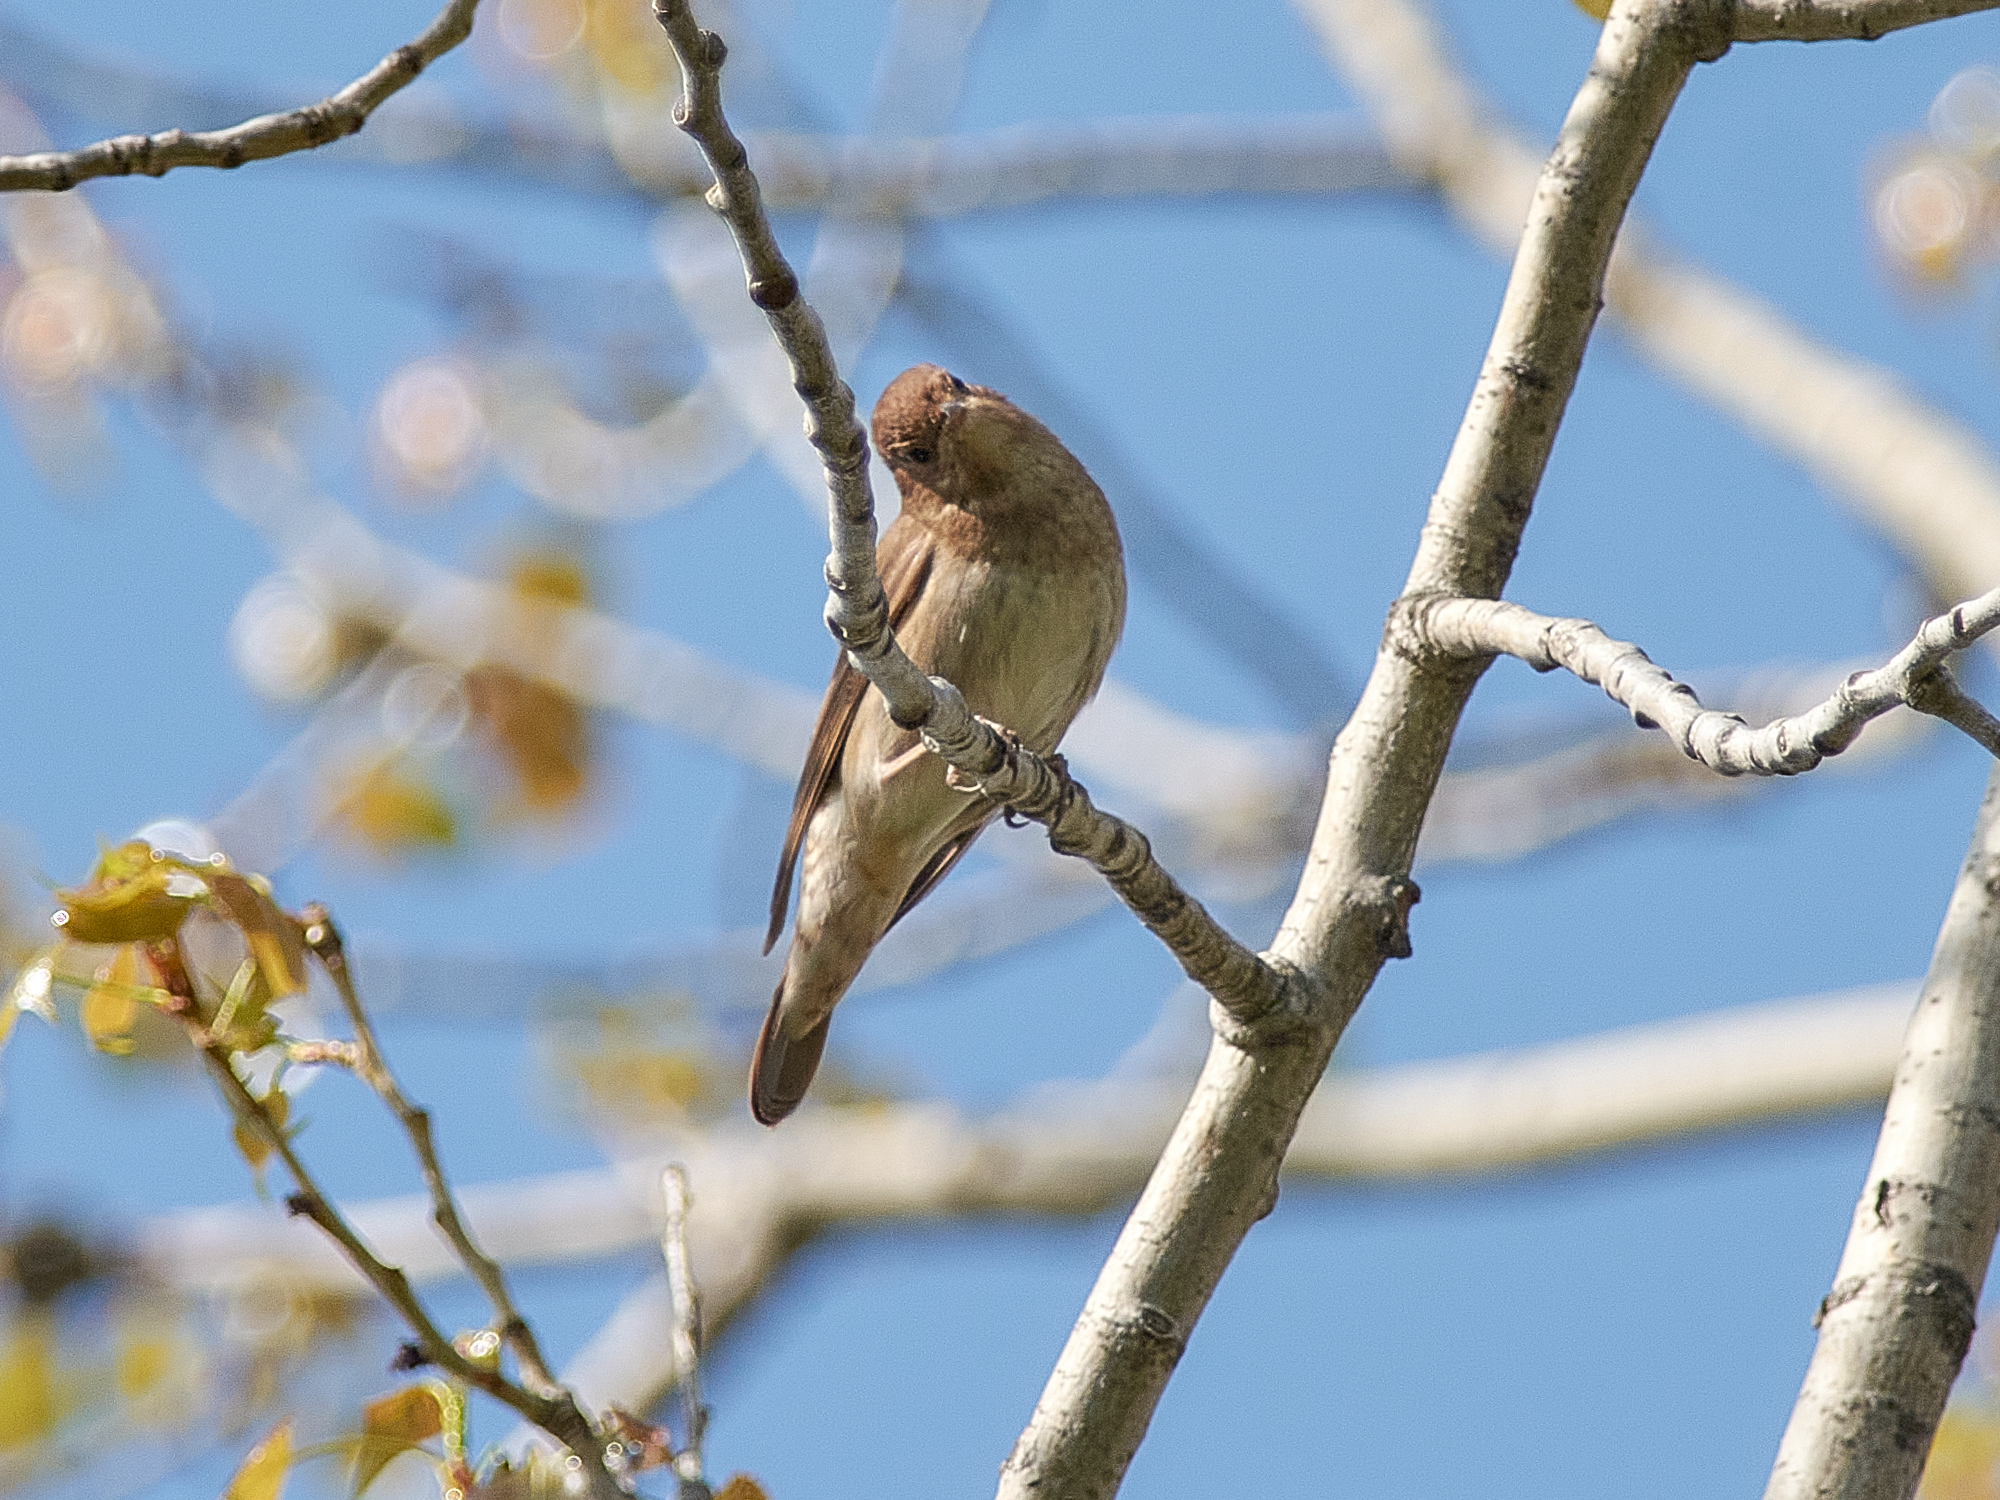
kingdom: Animalia
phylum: Chordata
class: Aves
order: Passeriformes
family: Muscicapidae
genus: Luscinia
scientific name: Luscinia luscinia
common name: Thrush nightingale
